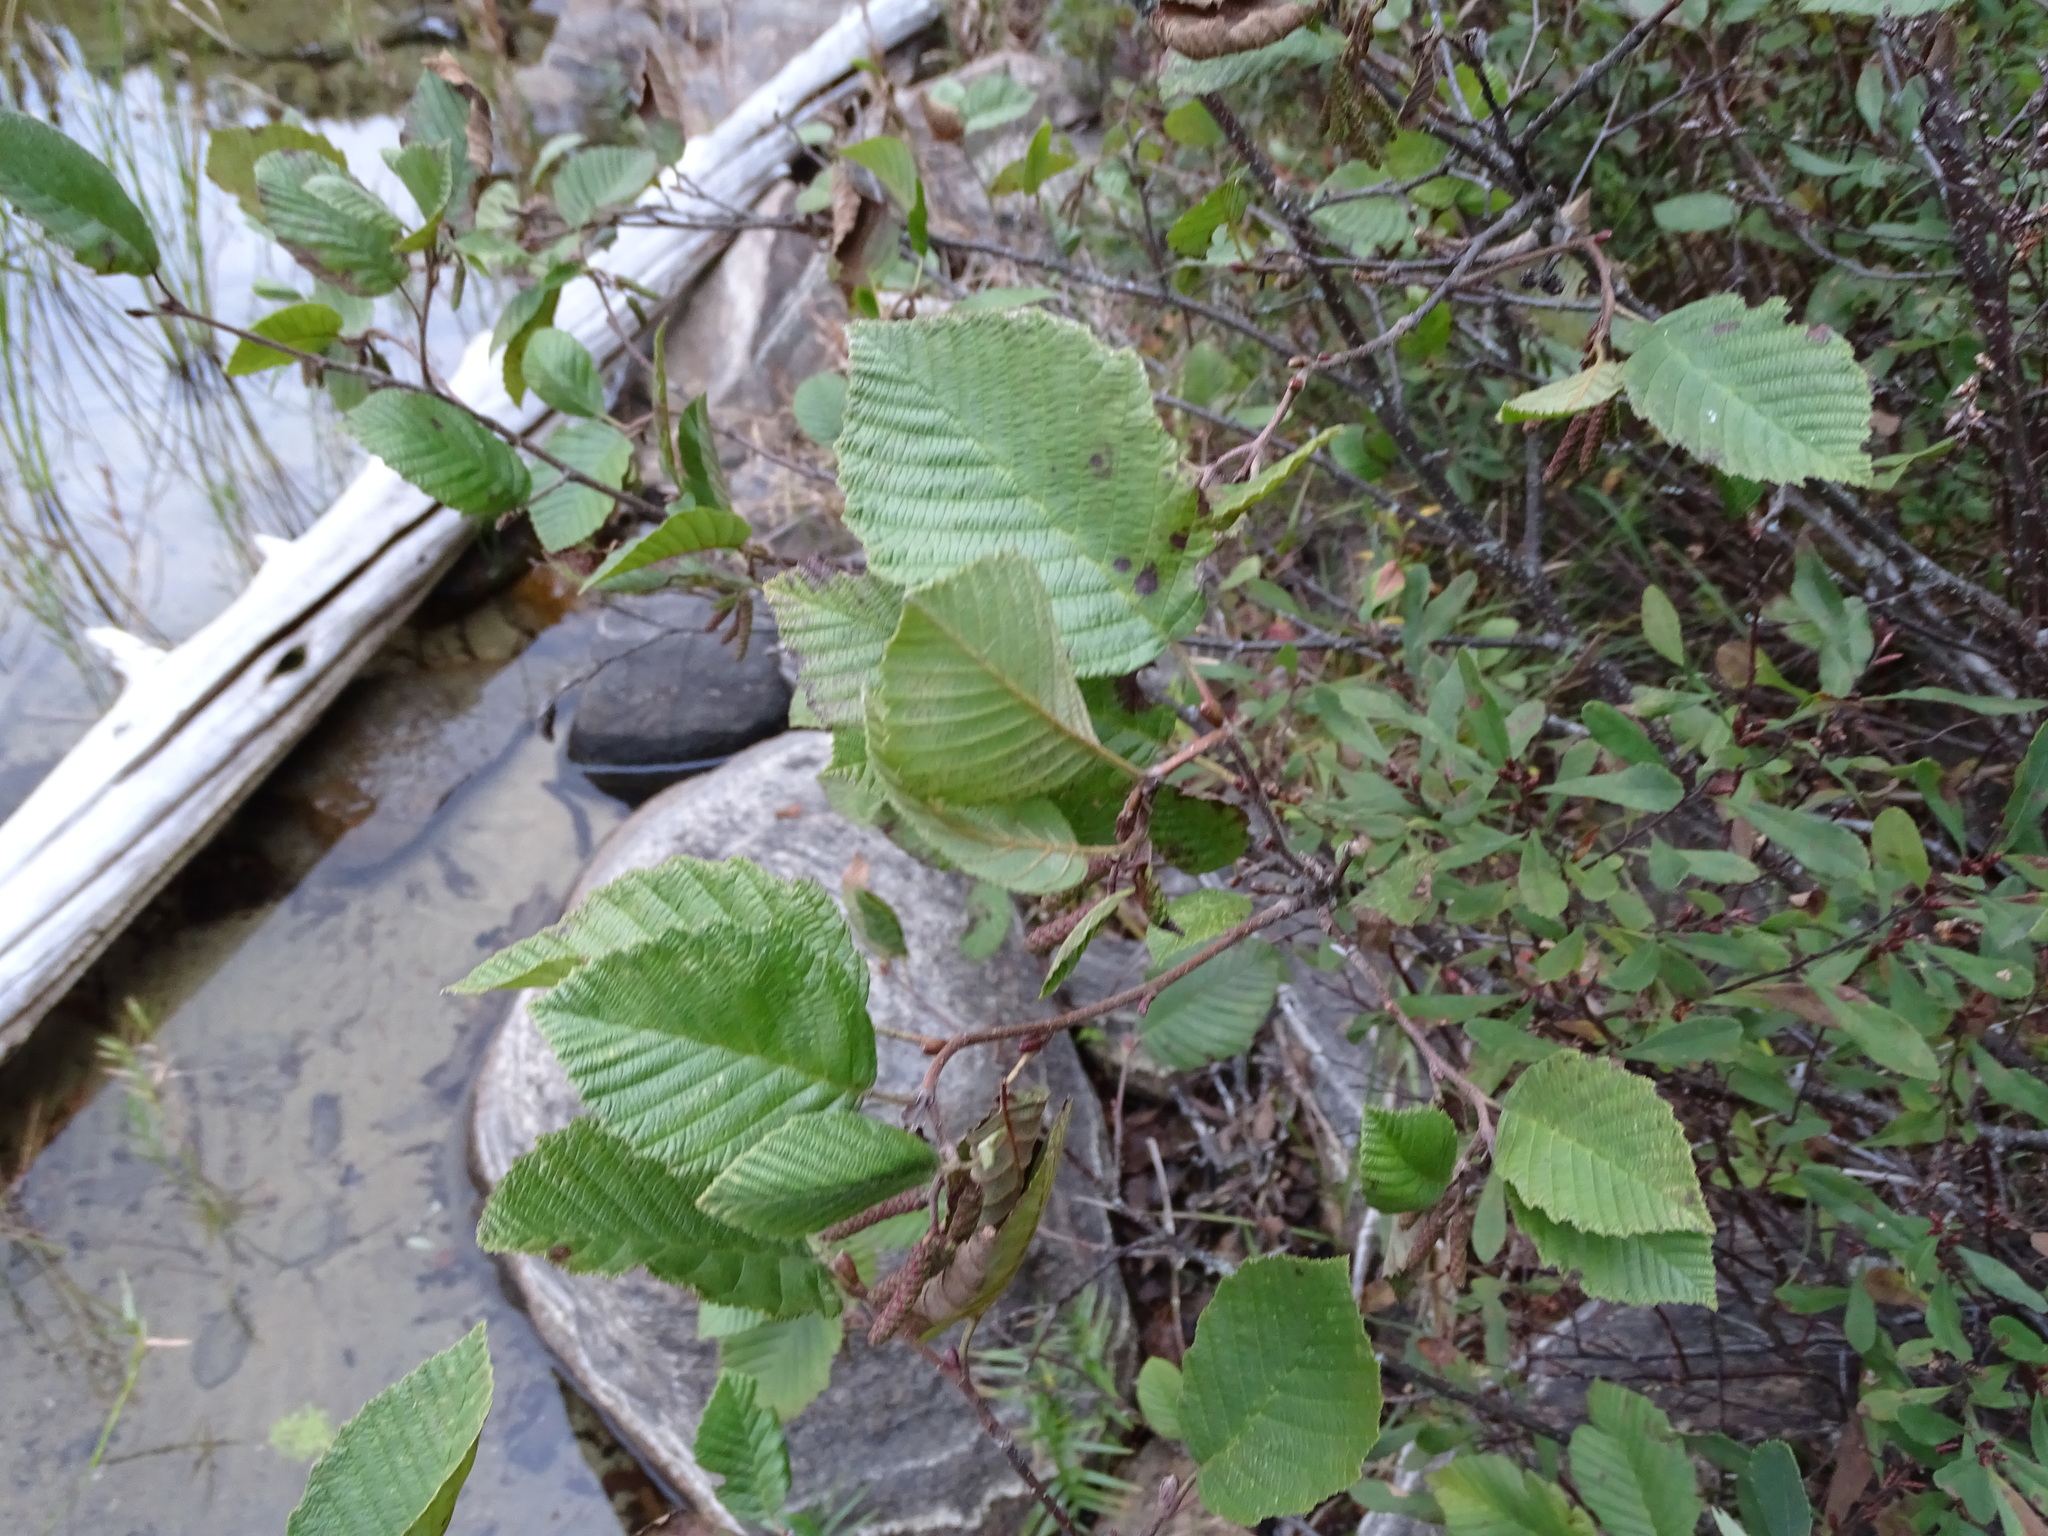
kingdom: Plantae
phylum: Tracheophyta
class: Magnoliopsida
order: Fagales
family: Betulaceae
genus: Alnus
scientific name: Alnus incana
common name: Grey alder
